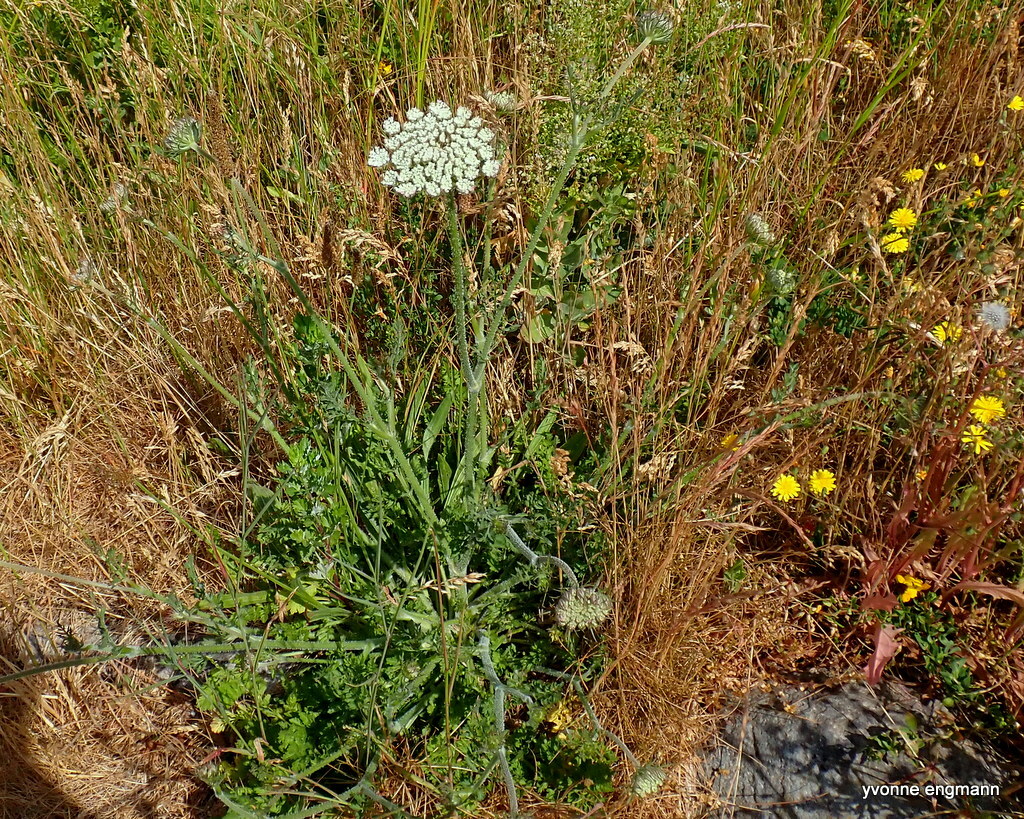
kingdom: Plantae
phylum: Tracheophyta
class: Magnoliopsida
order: Apiales
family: Apiaceae
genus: Daucus
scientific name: Daucus carota
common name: Wild carrot
